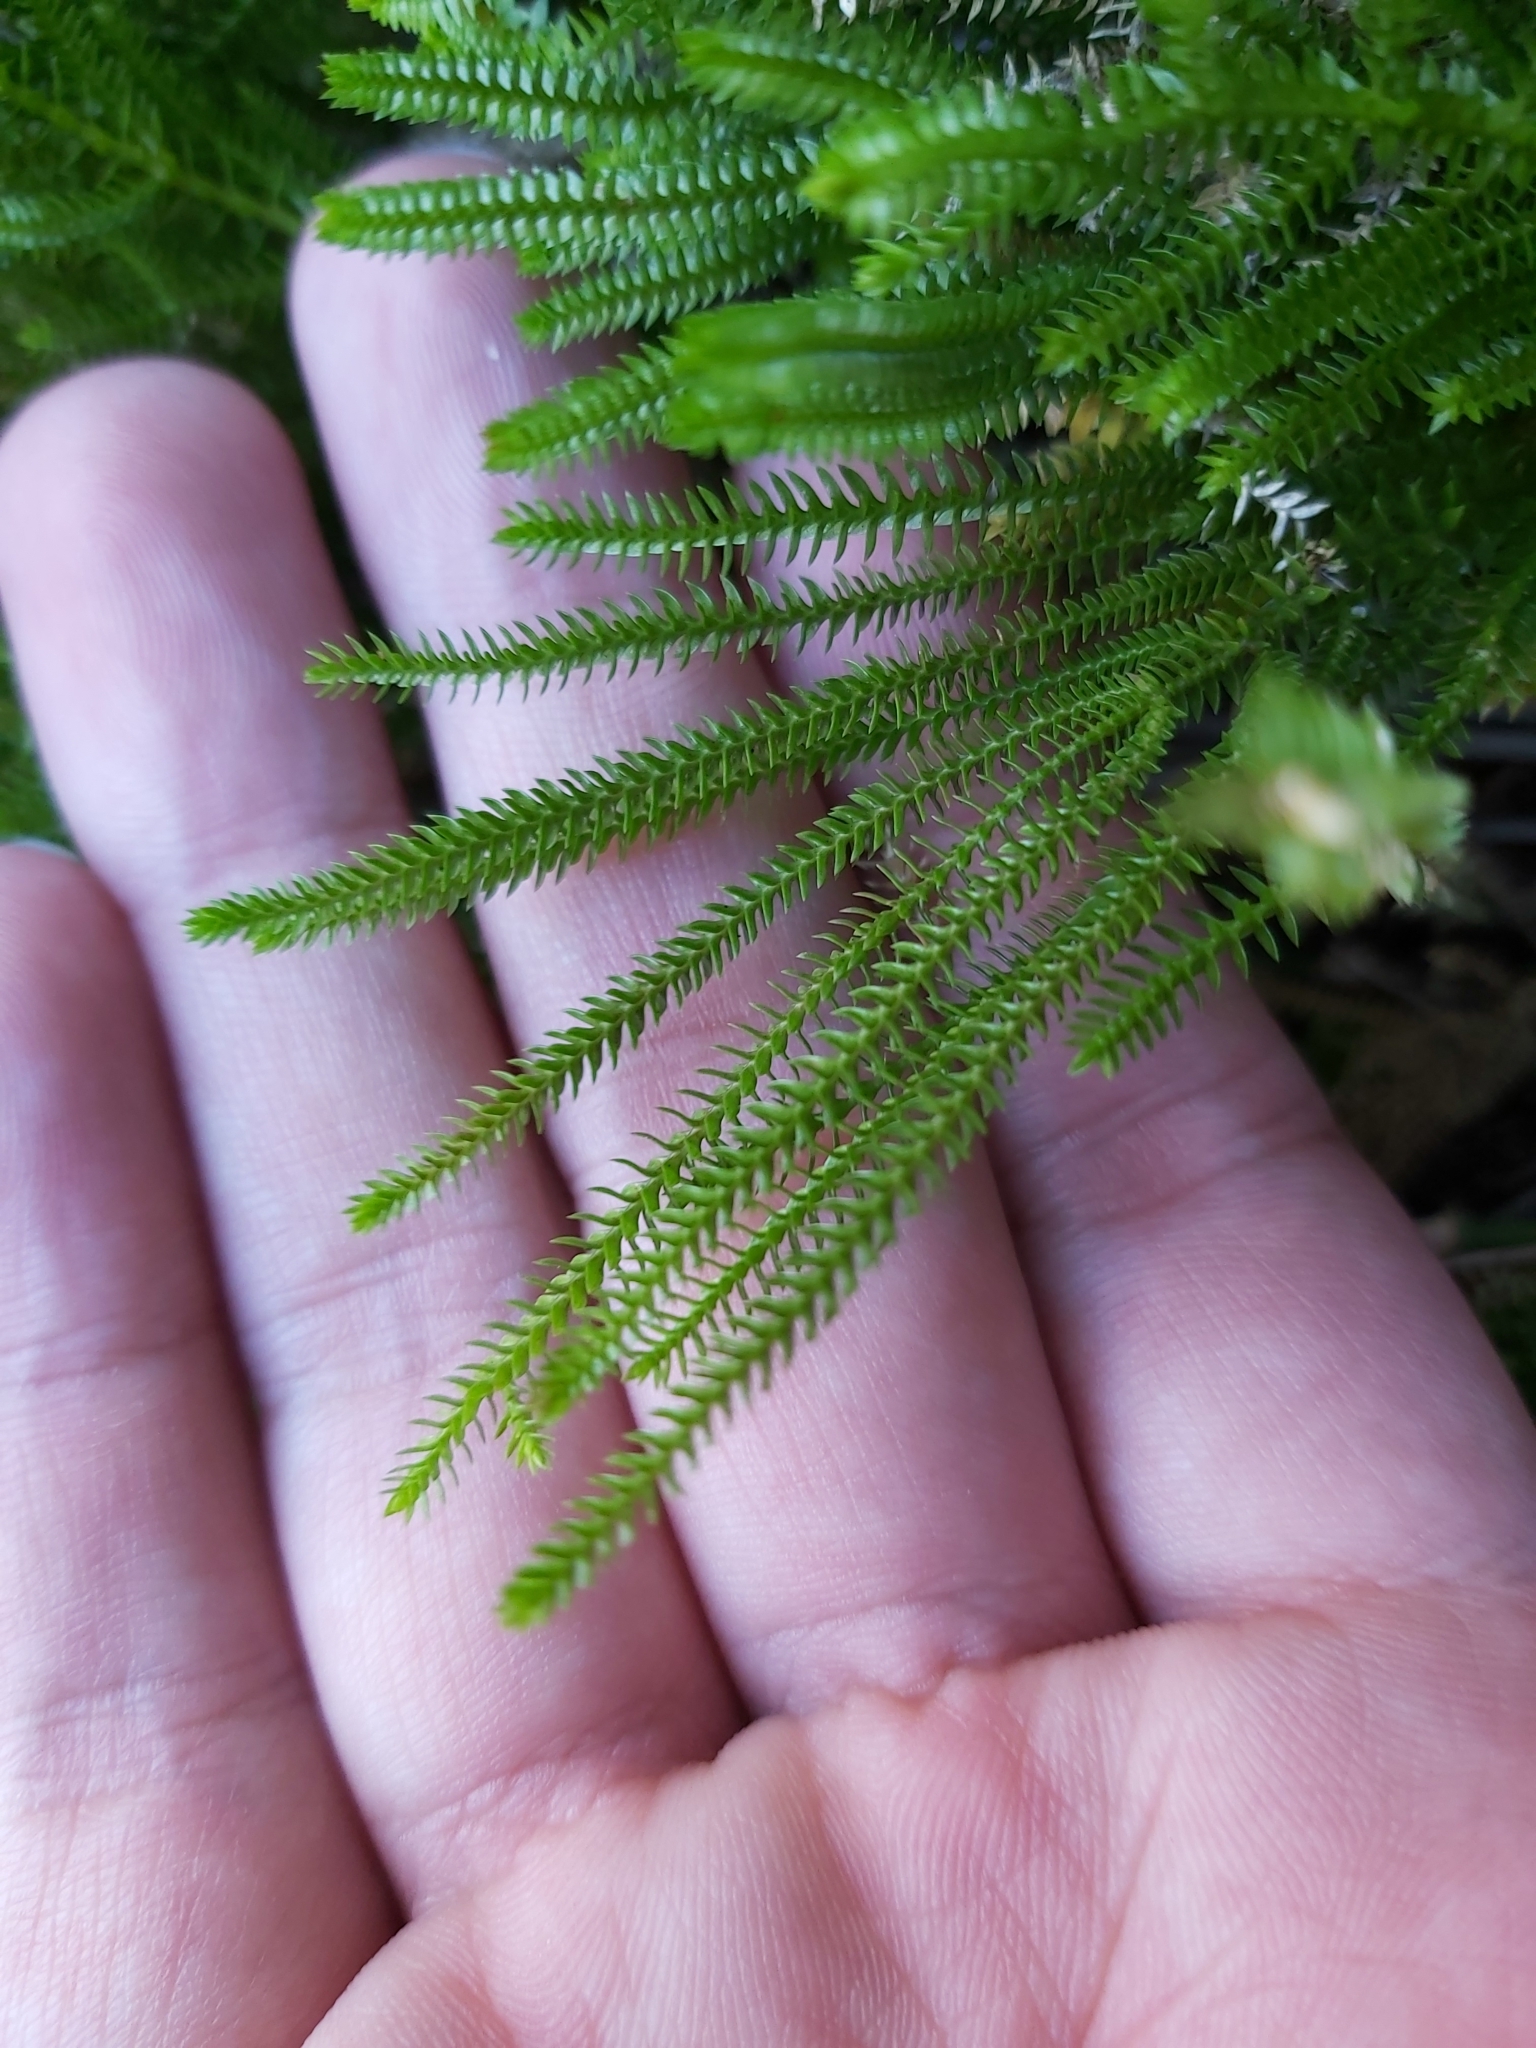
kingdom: Plantae
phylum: Tracheophyta
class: Lycopodiopsida
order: Selaginellales
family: Selaginellaceae
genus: Selaginella
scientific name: Selaginella uliginosa
